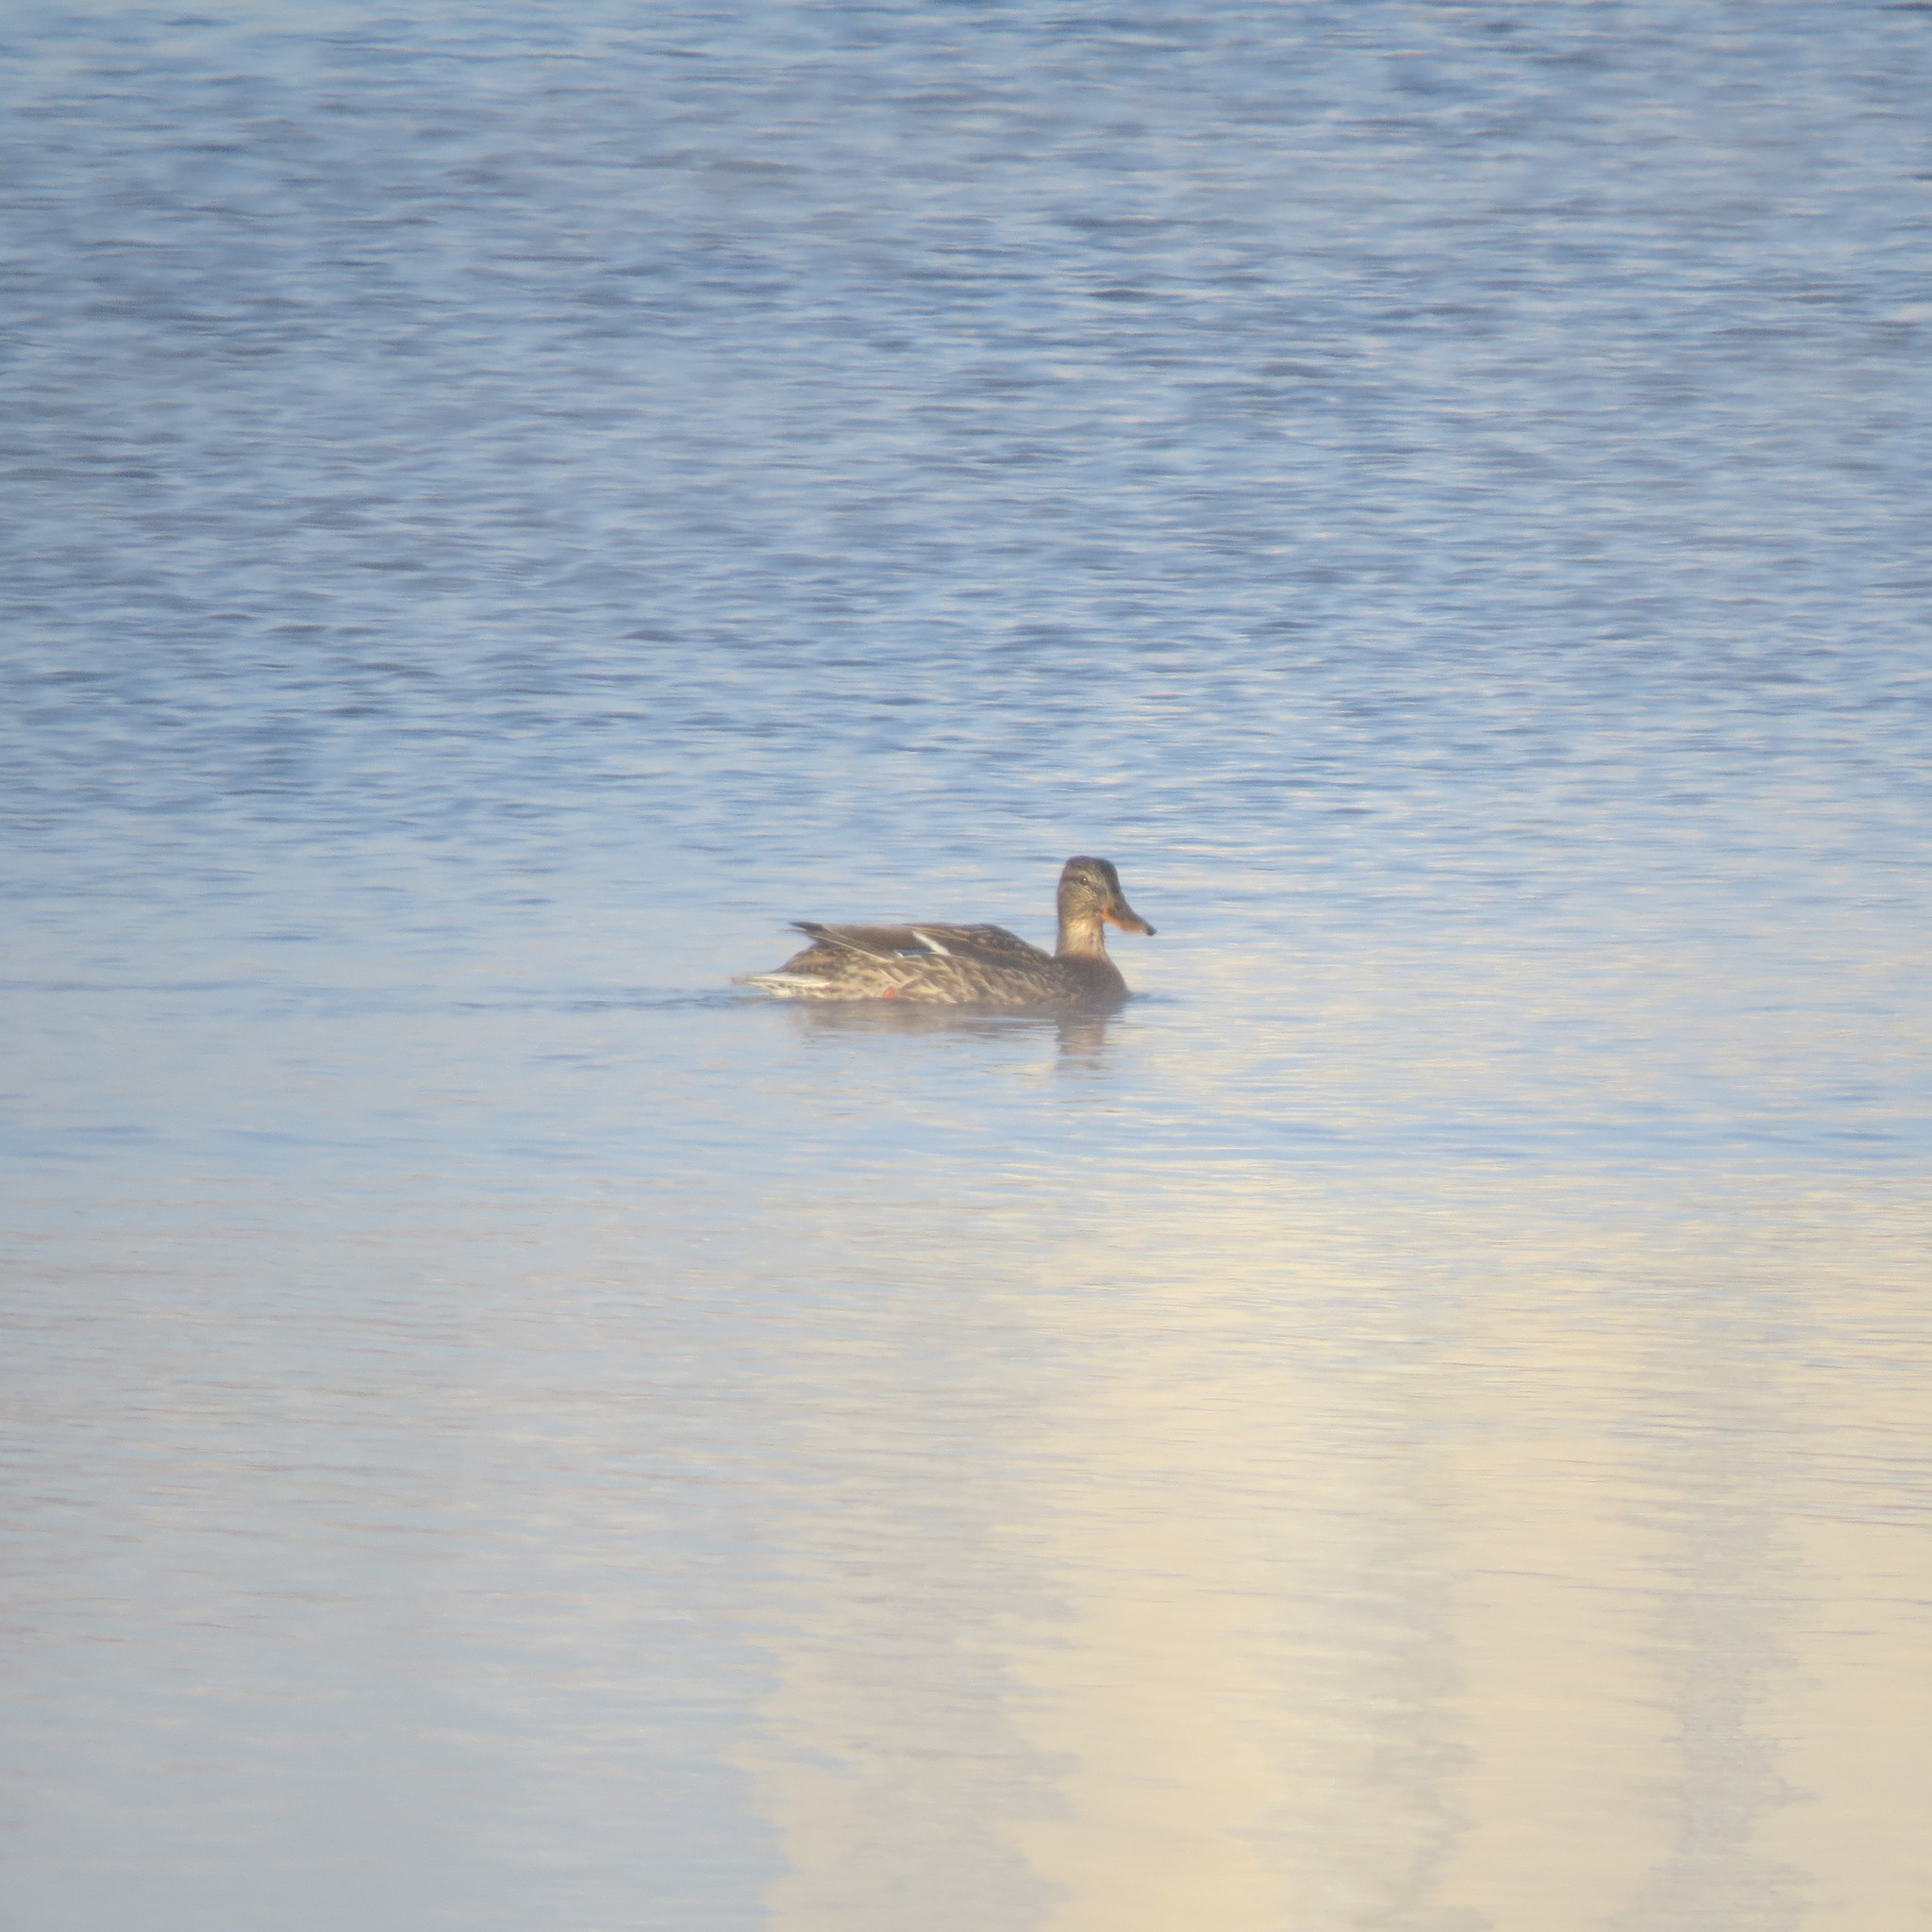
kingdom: Animalia
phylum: Chordata
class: Aves
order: Anseriformes
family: Anatidae
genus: Anas
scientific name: Anas platyrhynchos
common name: Mallard
